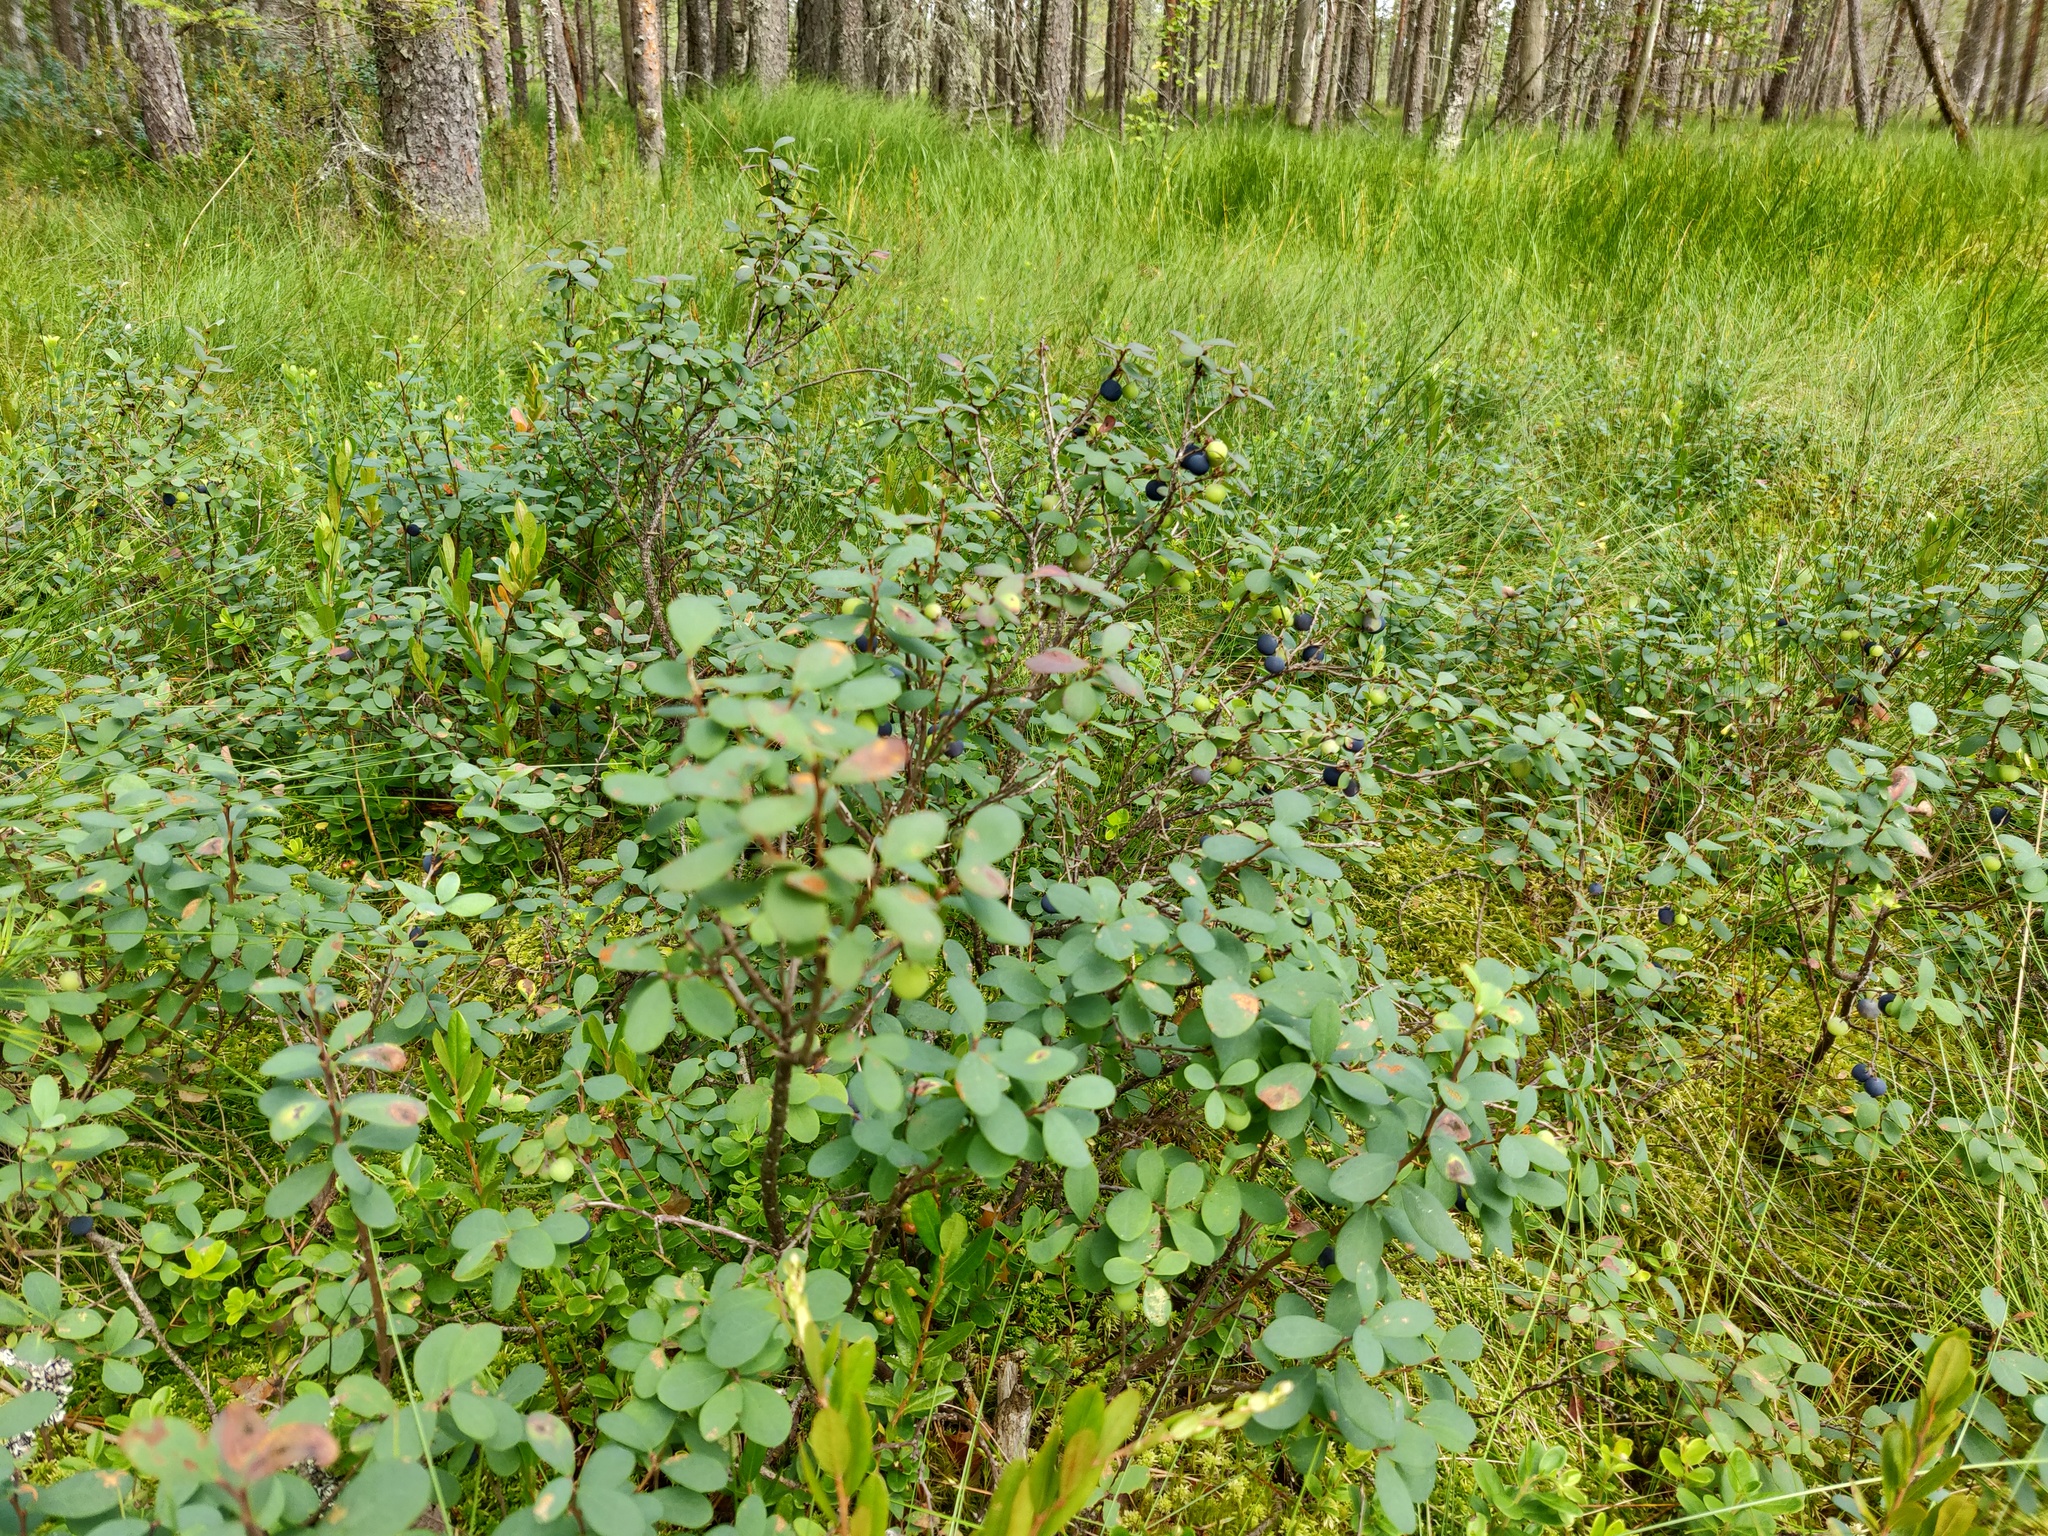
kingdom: Plantae
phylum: Tracheophyta
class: Magnoliopsida
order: Ericales
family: Ericaceae
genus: Vaccinium
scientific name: Vaccinium uliginosum
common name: Bog bilberry
